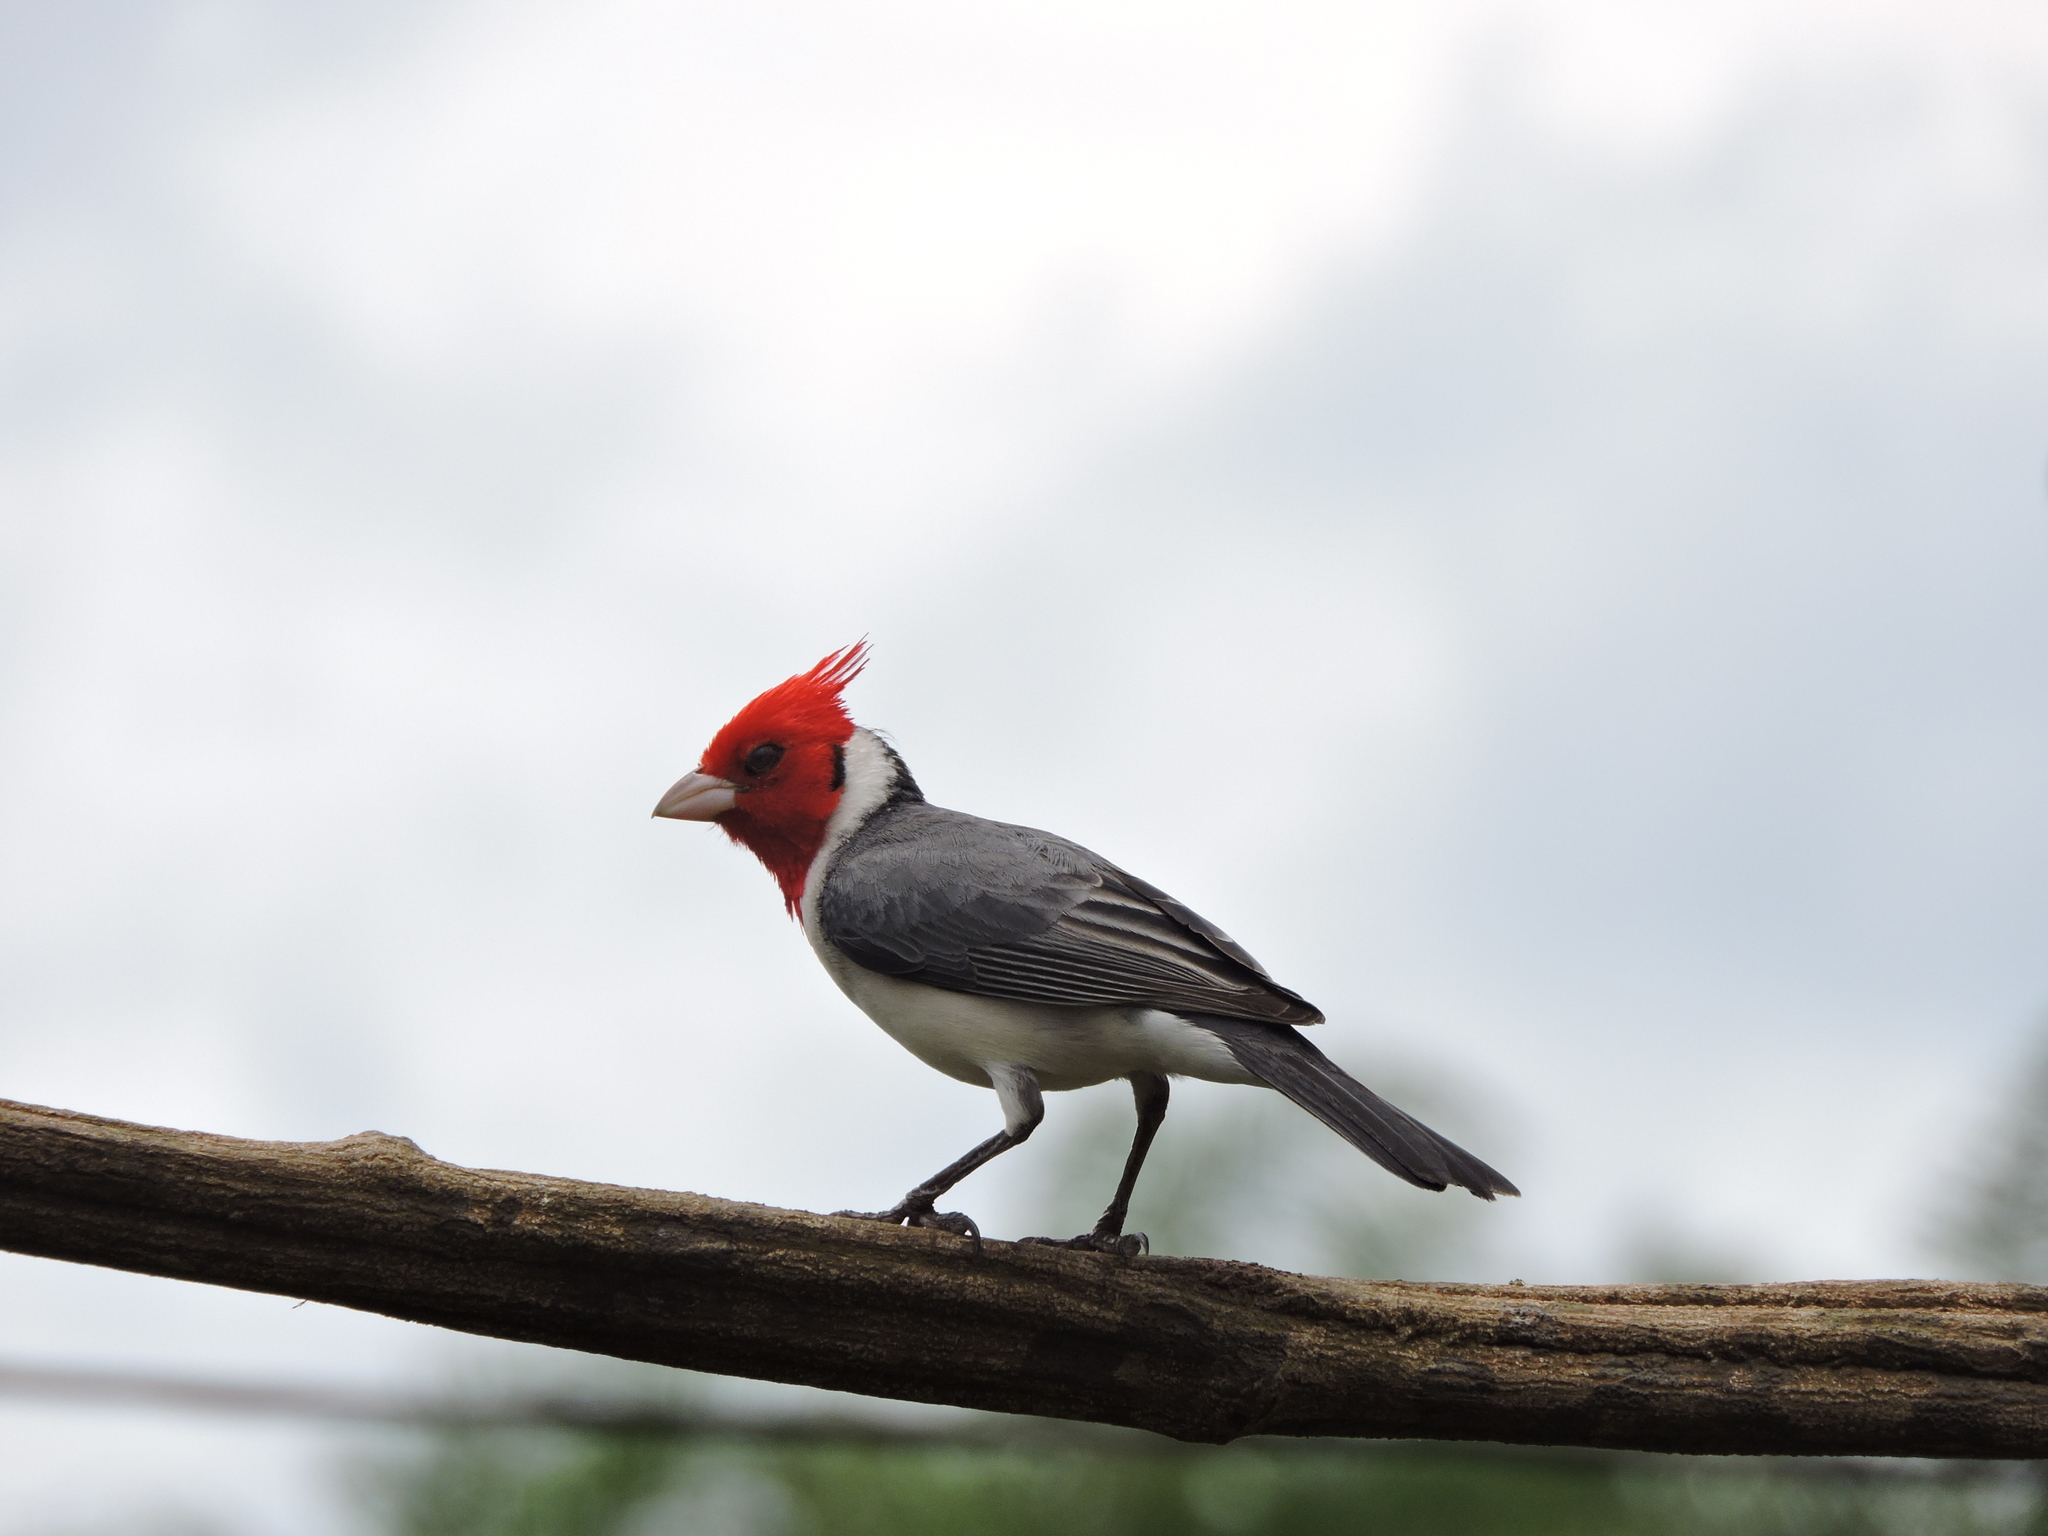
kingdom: Animalia
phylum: Chordata
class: Aves
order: Passeriformes
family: Thraupidae
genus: Paroaria
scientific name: Paroaria coronata
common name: Red-crested cardinal
